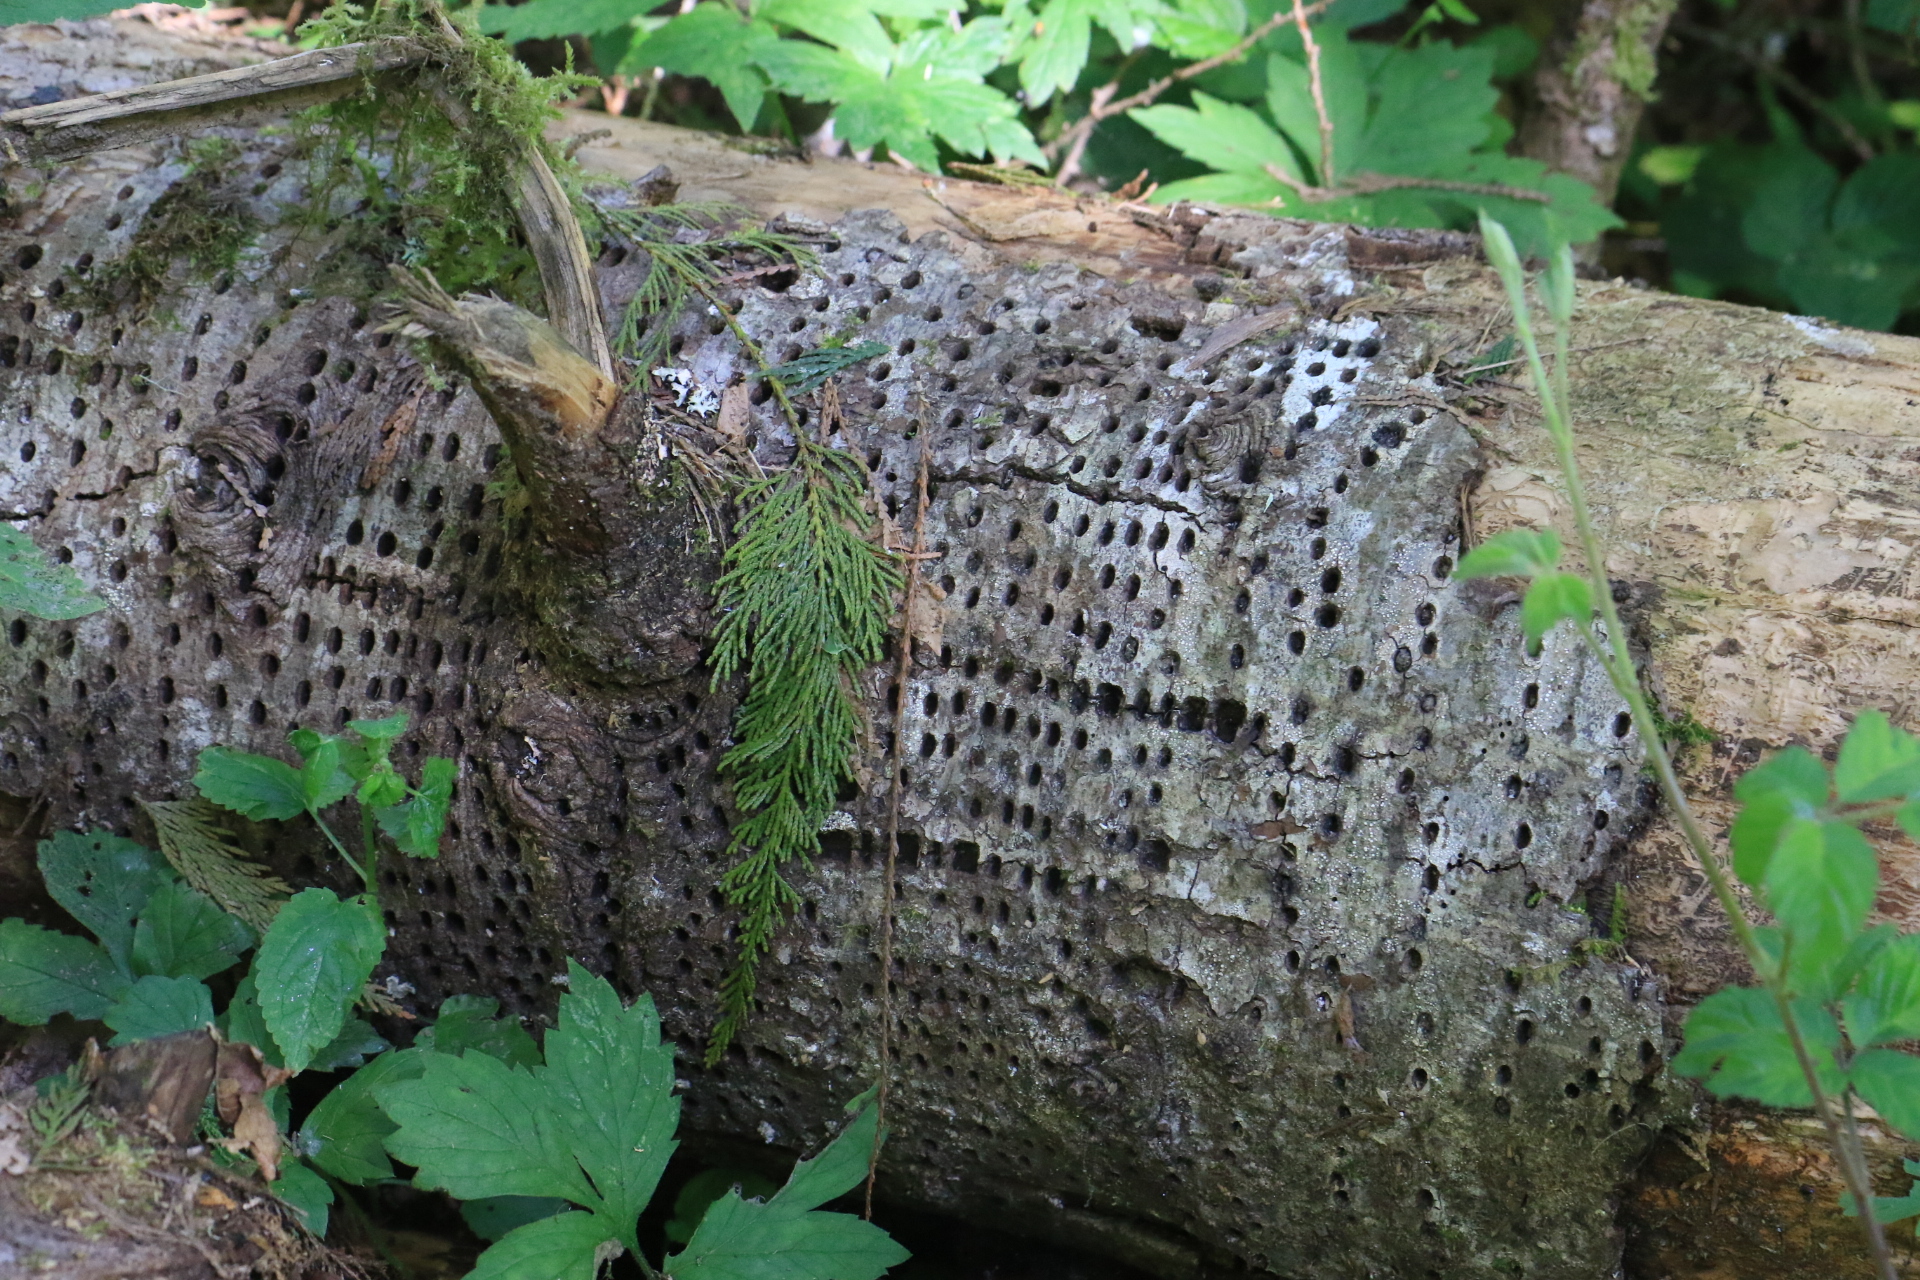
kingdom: Animalia
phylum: Chordata
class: Aves
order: Piciformes
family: Picidae
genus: Sphyrapicus
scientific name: Sphyrapicus ruber
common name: Red-breasted sapsucker
